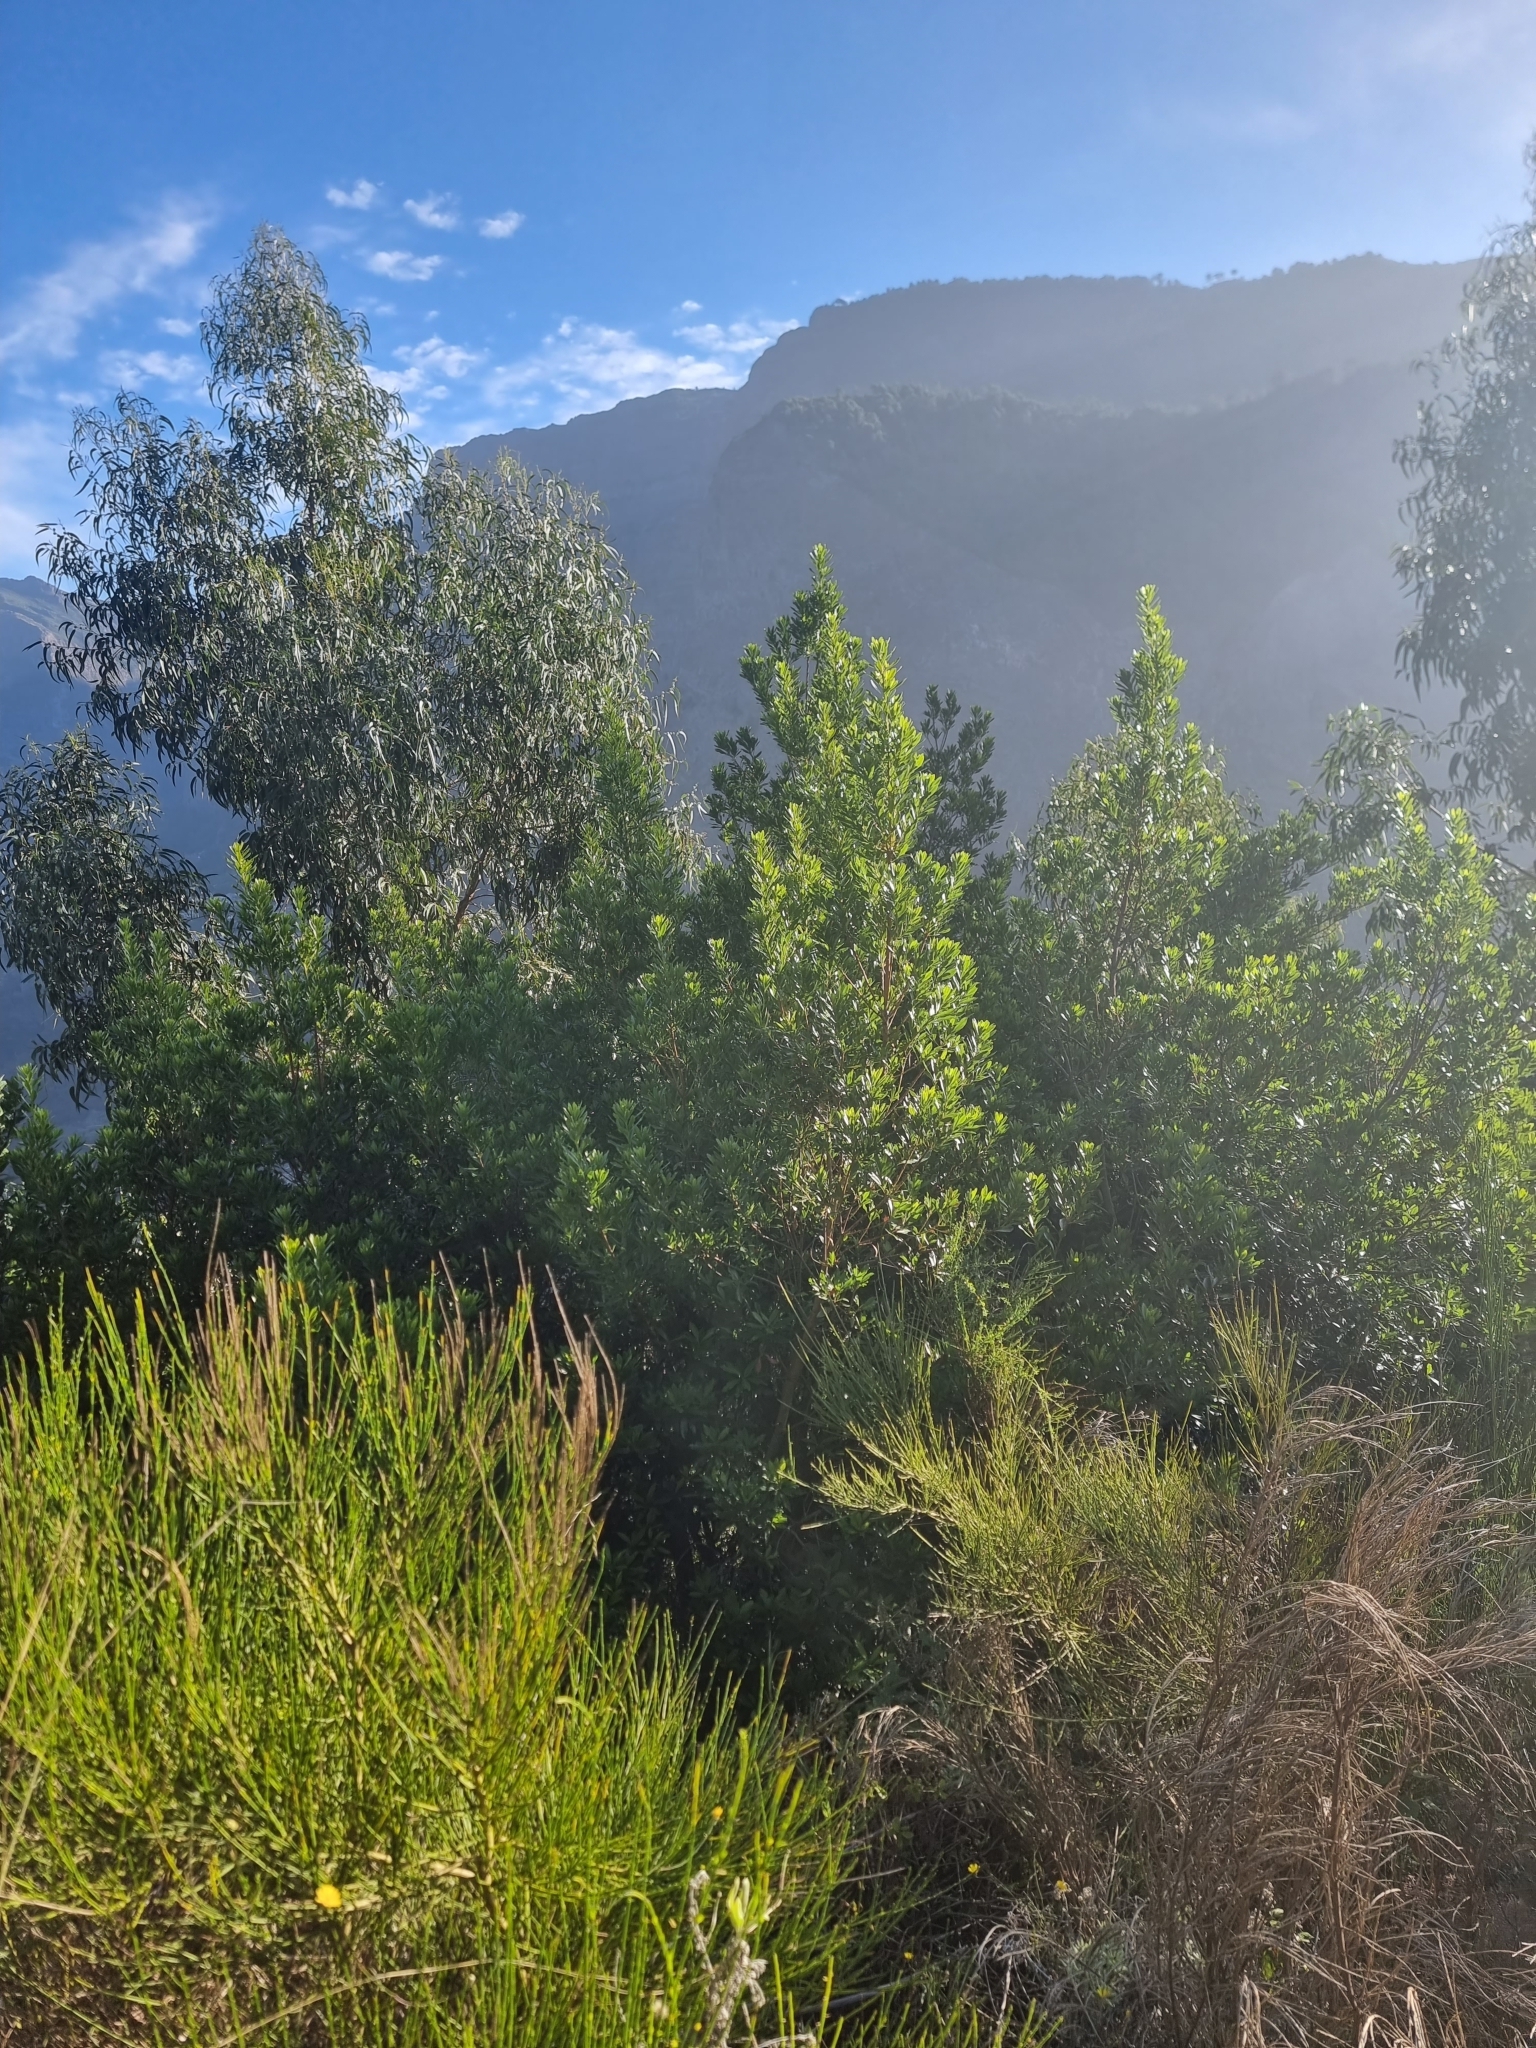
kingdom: Plantae
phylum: Tracheophyta
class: Magnoliopsida
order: Fagales
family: Myricaceae
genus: Morella
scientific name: Morella faya
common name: Firetree
